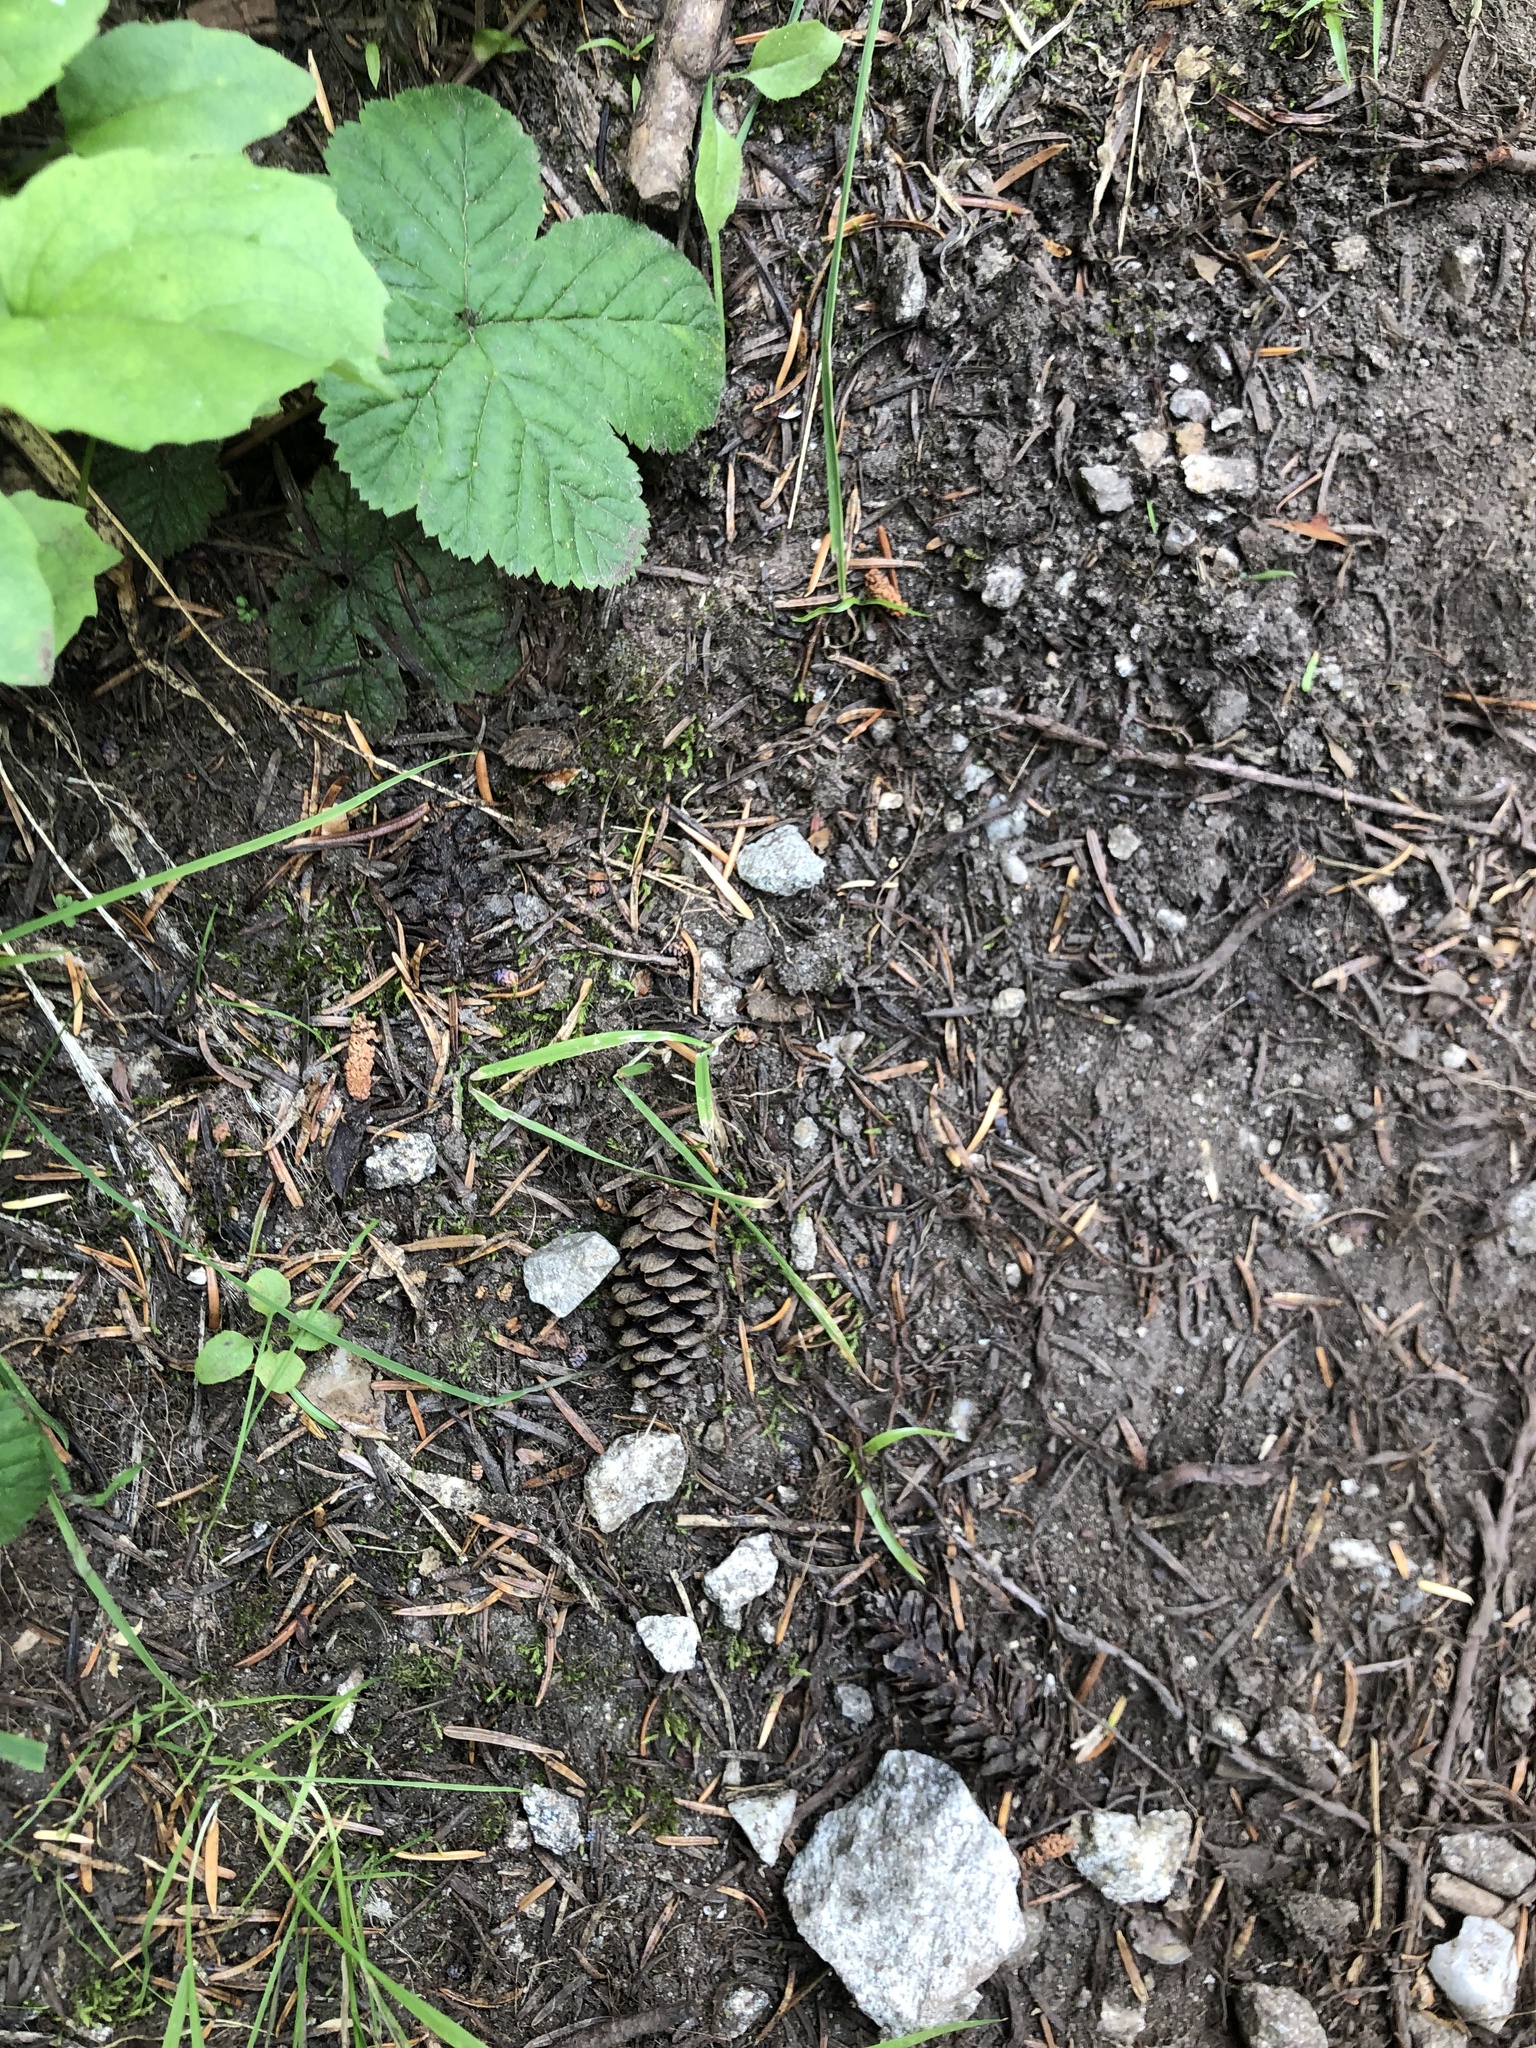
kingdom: Plantae
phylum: Tracheophyta
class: Pinopsida
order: Pinales
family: Pinaceae
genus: Tsuga
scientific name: Tsuga mertensiana
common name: Mountain hemlock
